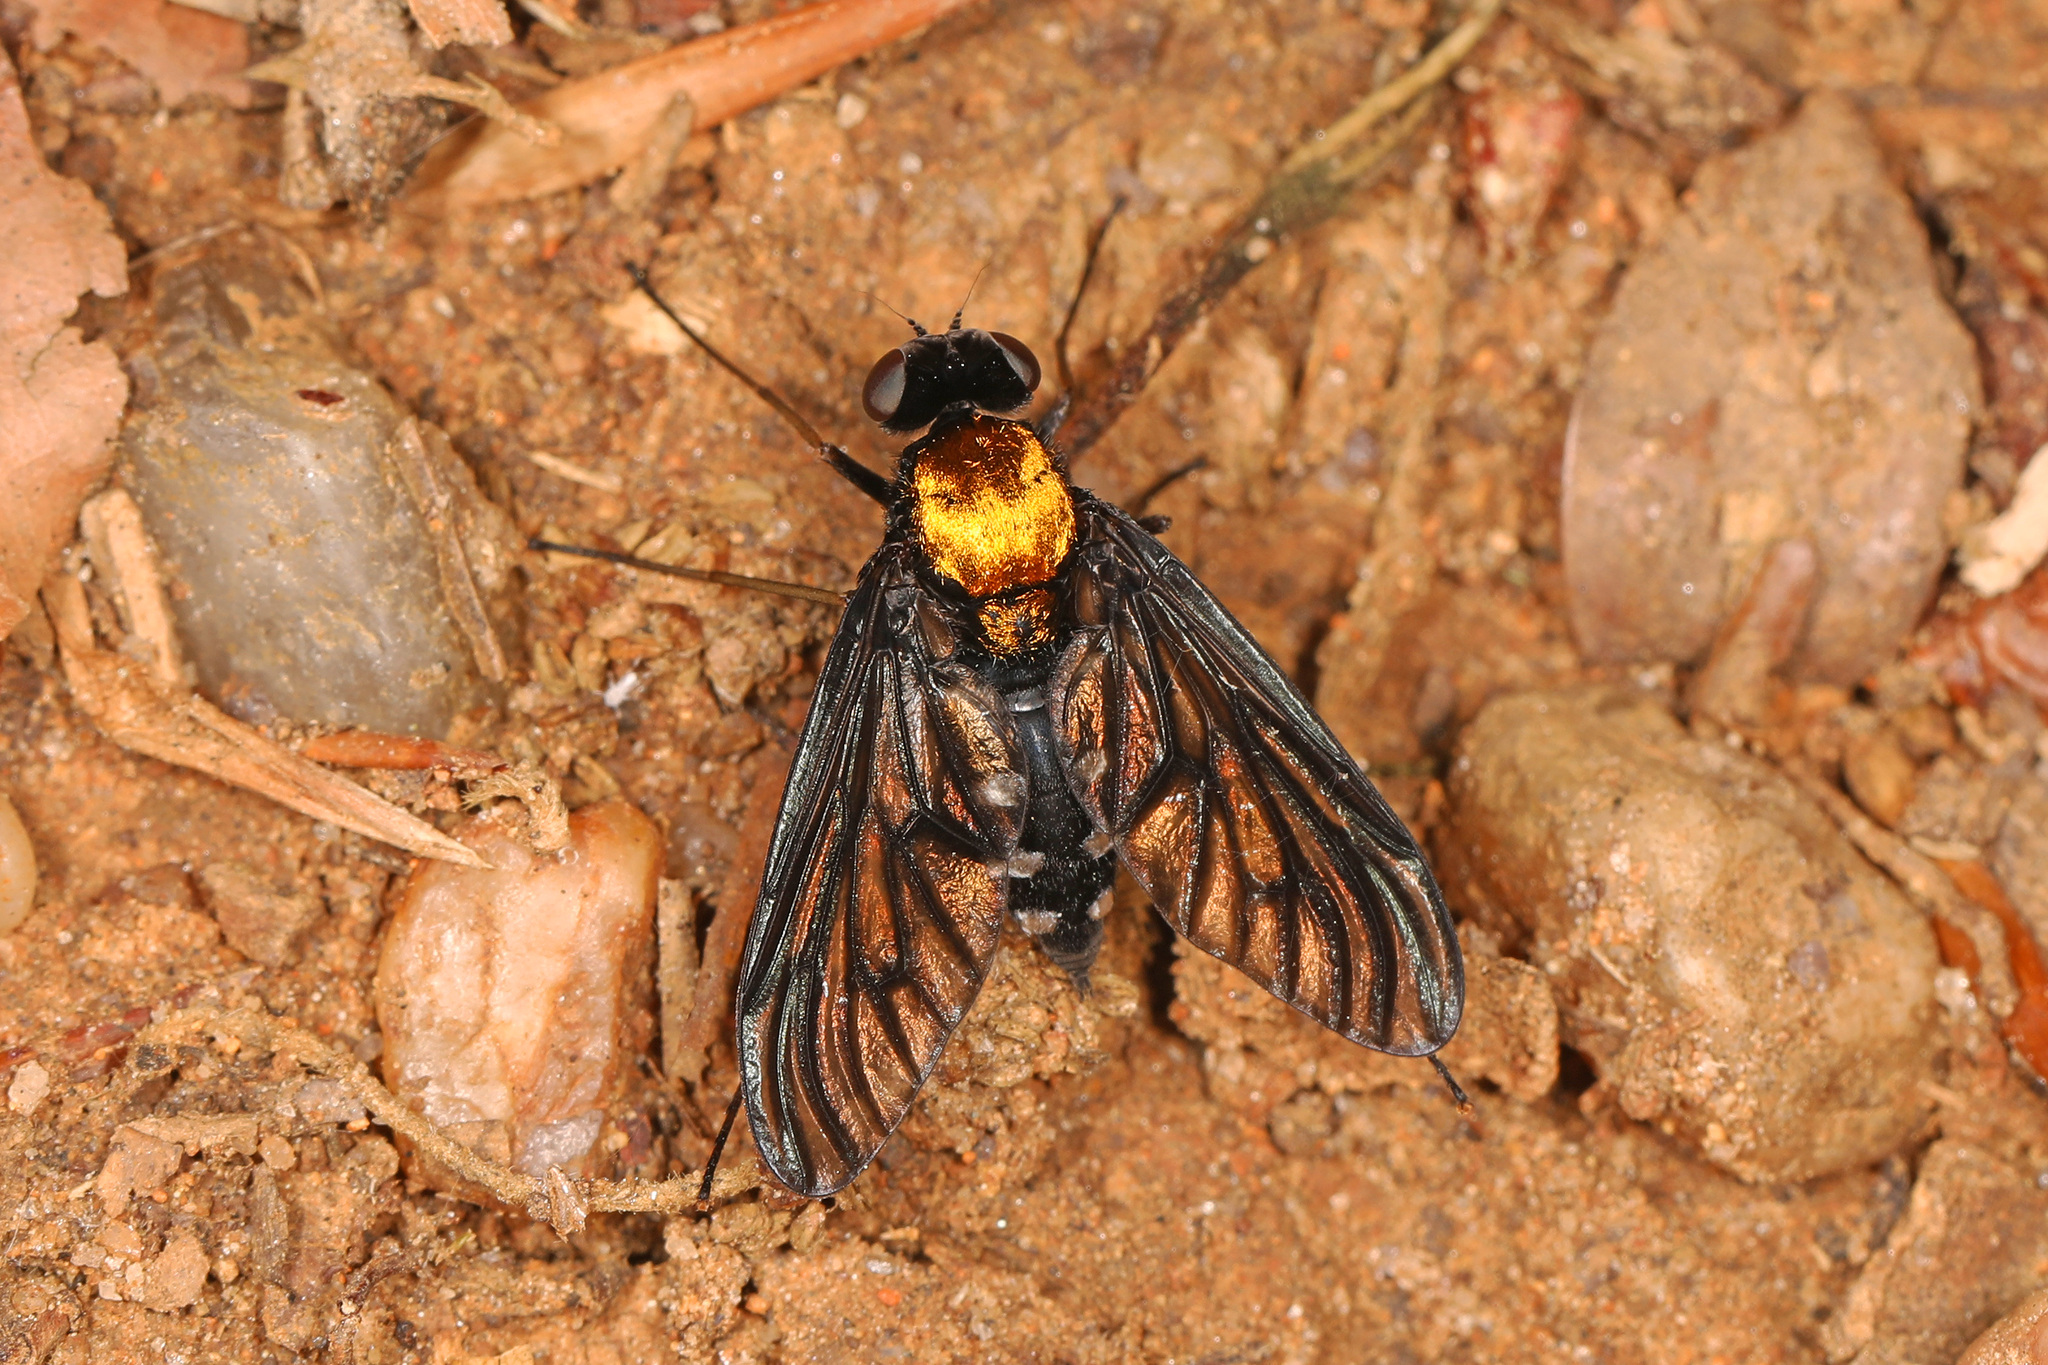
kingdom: Animalia
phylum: Arthropoda
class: Insecta
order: Diptera
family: Rhagionidae
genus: Chrysopilus
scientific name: Chrysopilus thoracicus
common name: Golden-backed snipe fly
